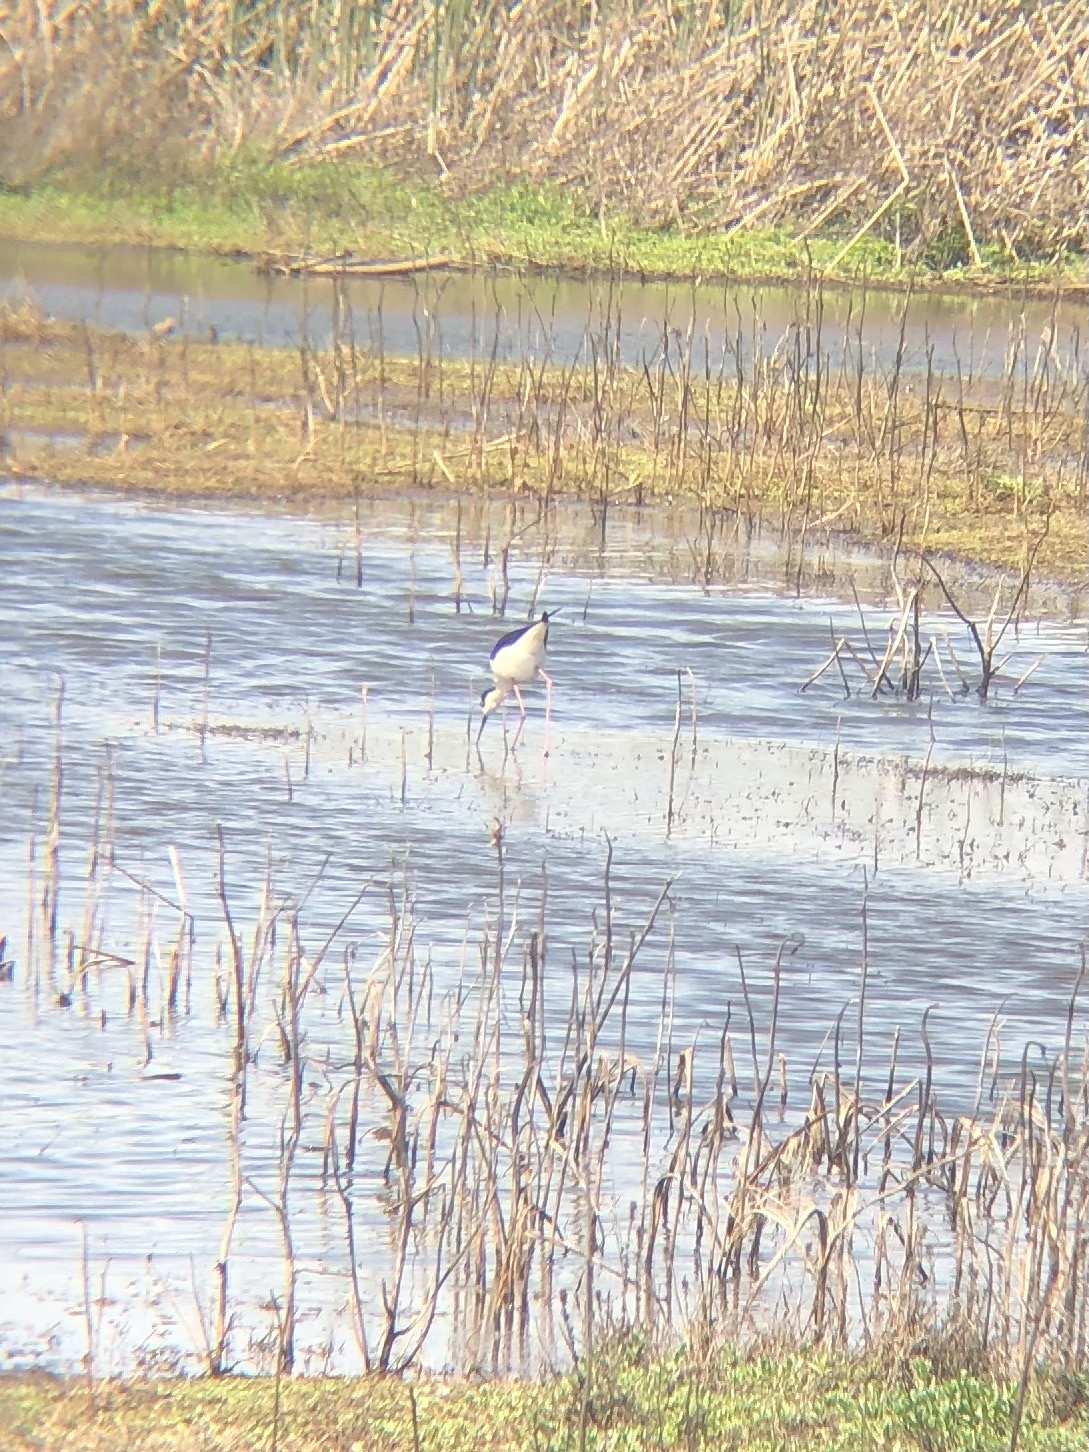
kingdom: Animalia
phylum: Chordata
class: Aves
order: Charadriiformes
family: Recurvirostridae
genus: Himantopus
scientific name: Himantopus mexicanus
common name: Black-necked stilt
